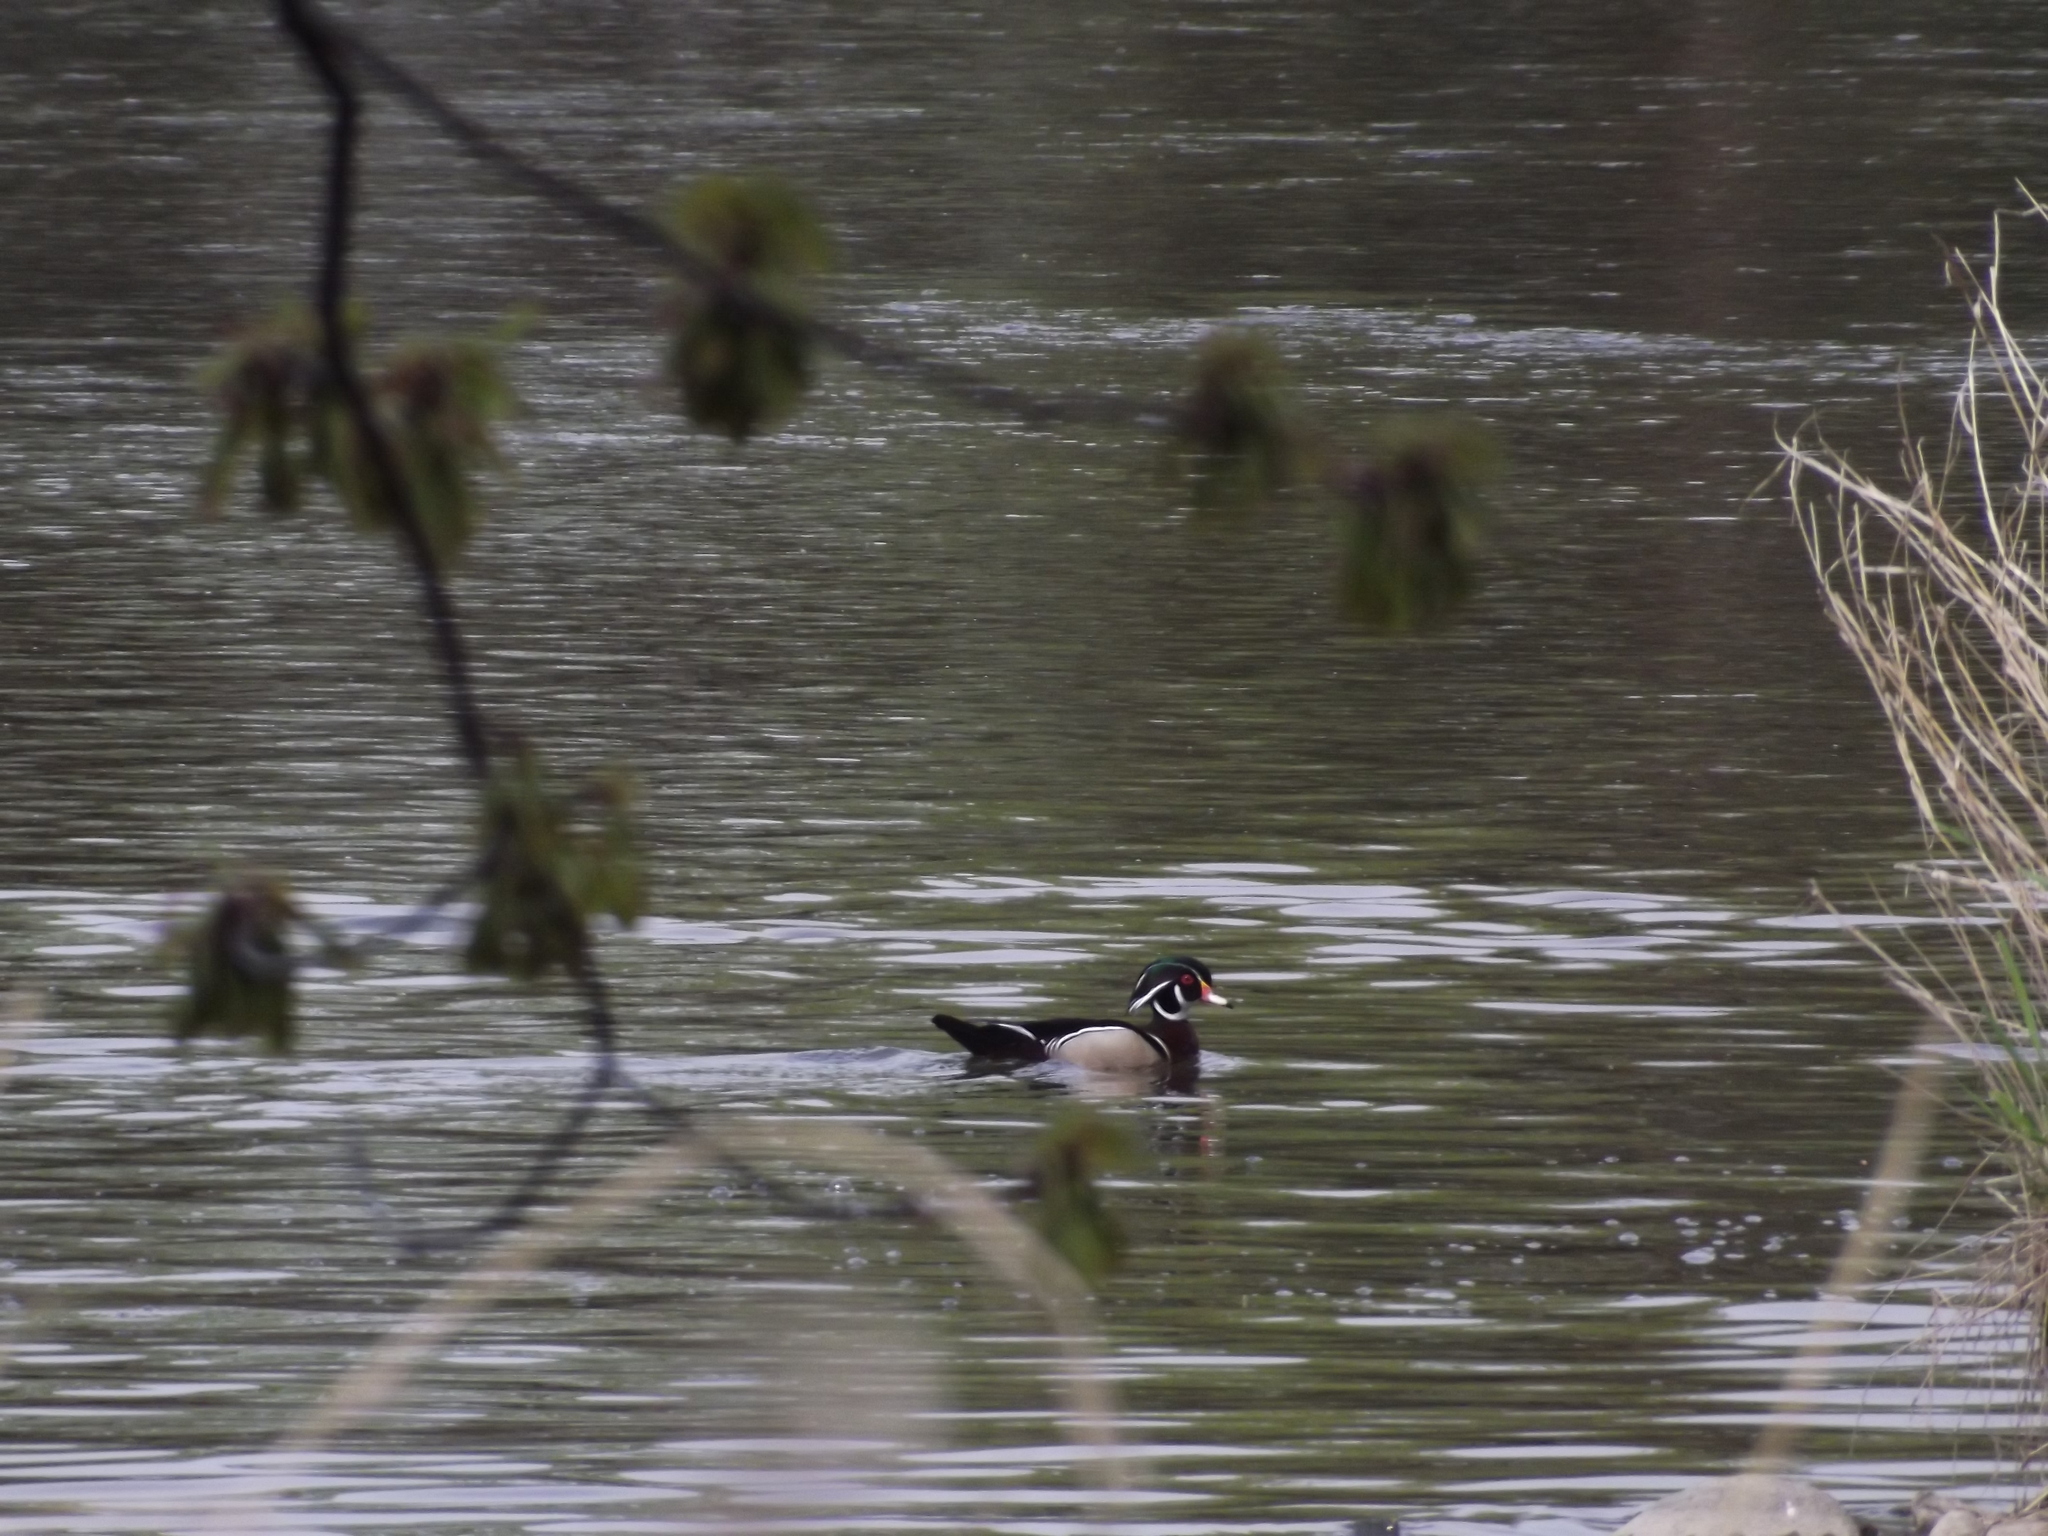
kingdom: Animalia
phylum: Chordata
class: Aves
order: Anseriformes
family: Anatidae
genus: Aix
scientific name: Aix sponsa
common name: Wood duck
